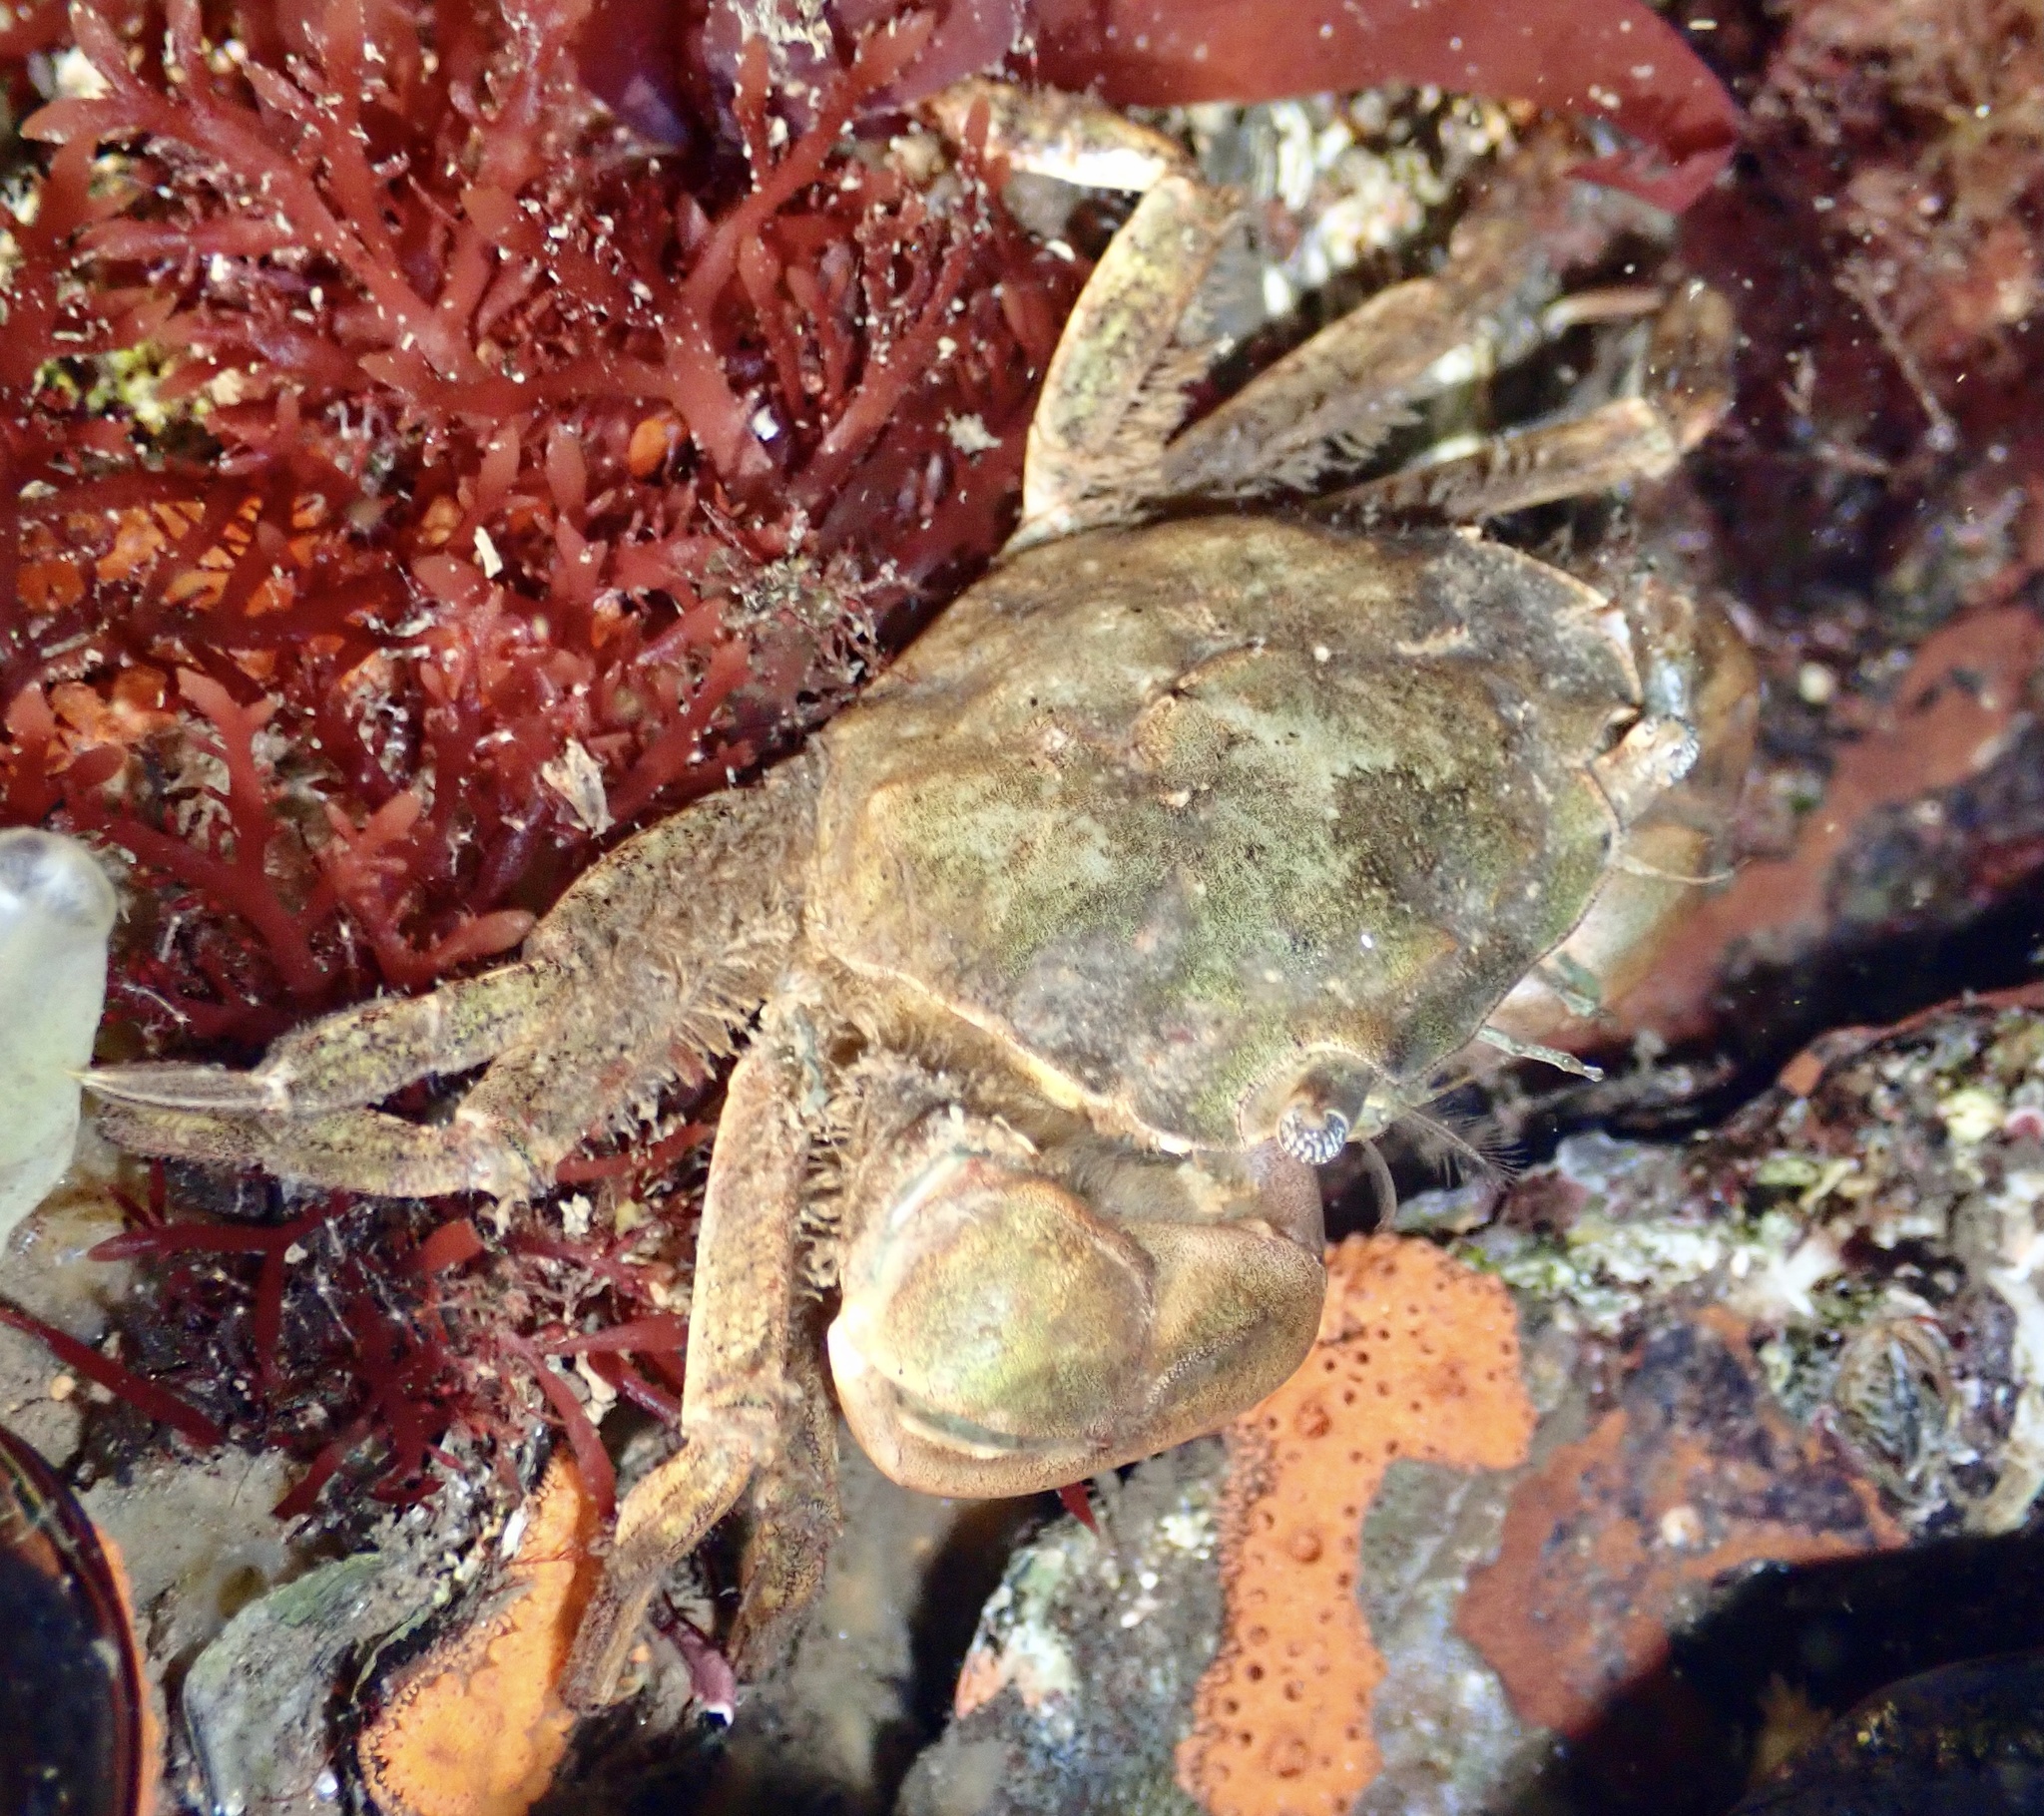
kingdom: Animalia
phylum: Arthropoda
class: Malacostraca
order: Decapoda
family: Varunidae
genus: Hemigrapsus
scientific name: Hemigrapsus takanoi
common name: Asian brush crab
